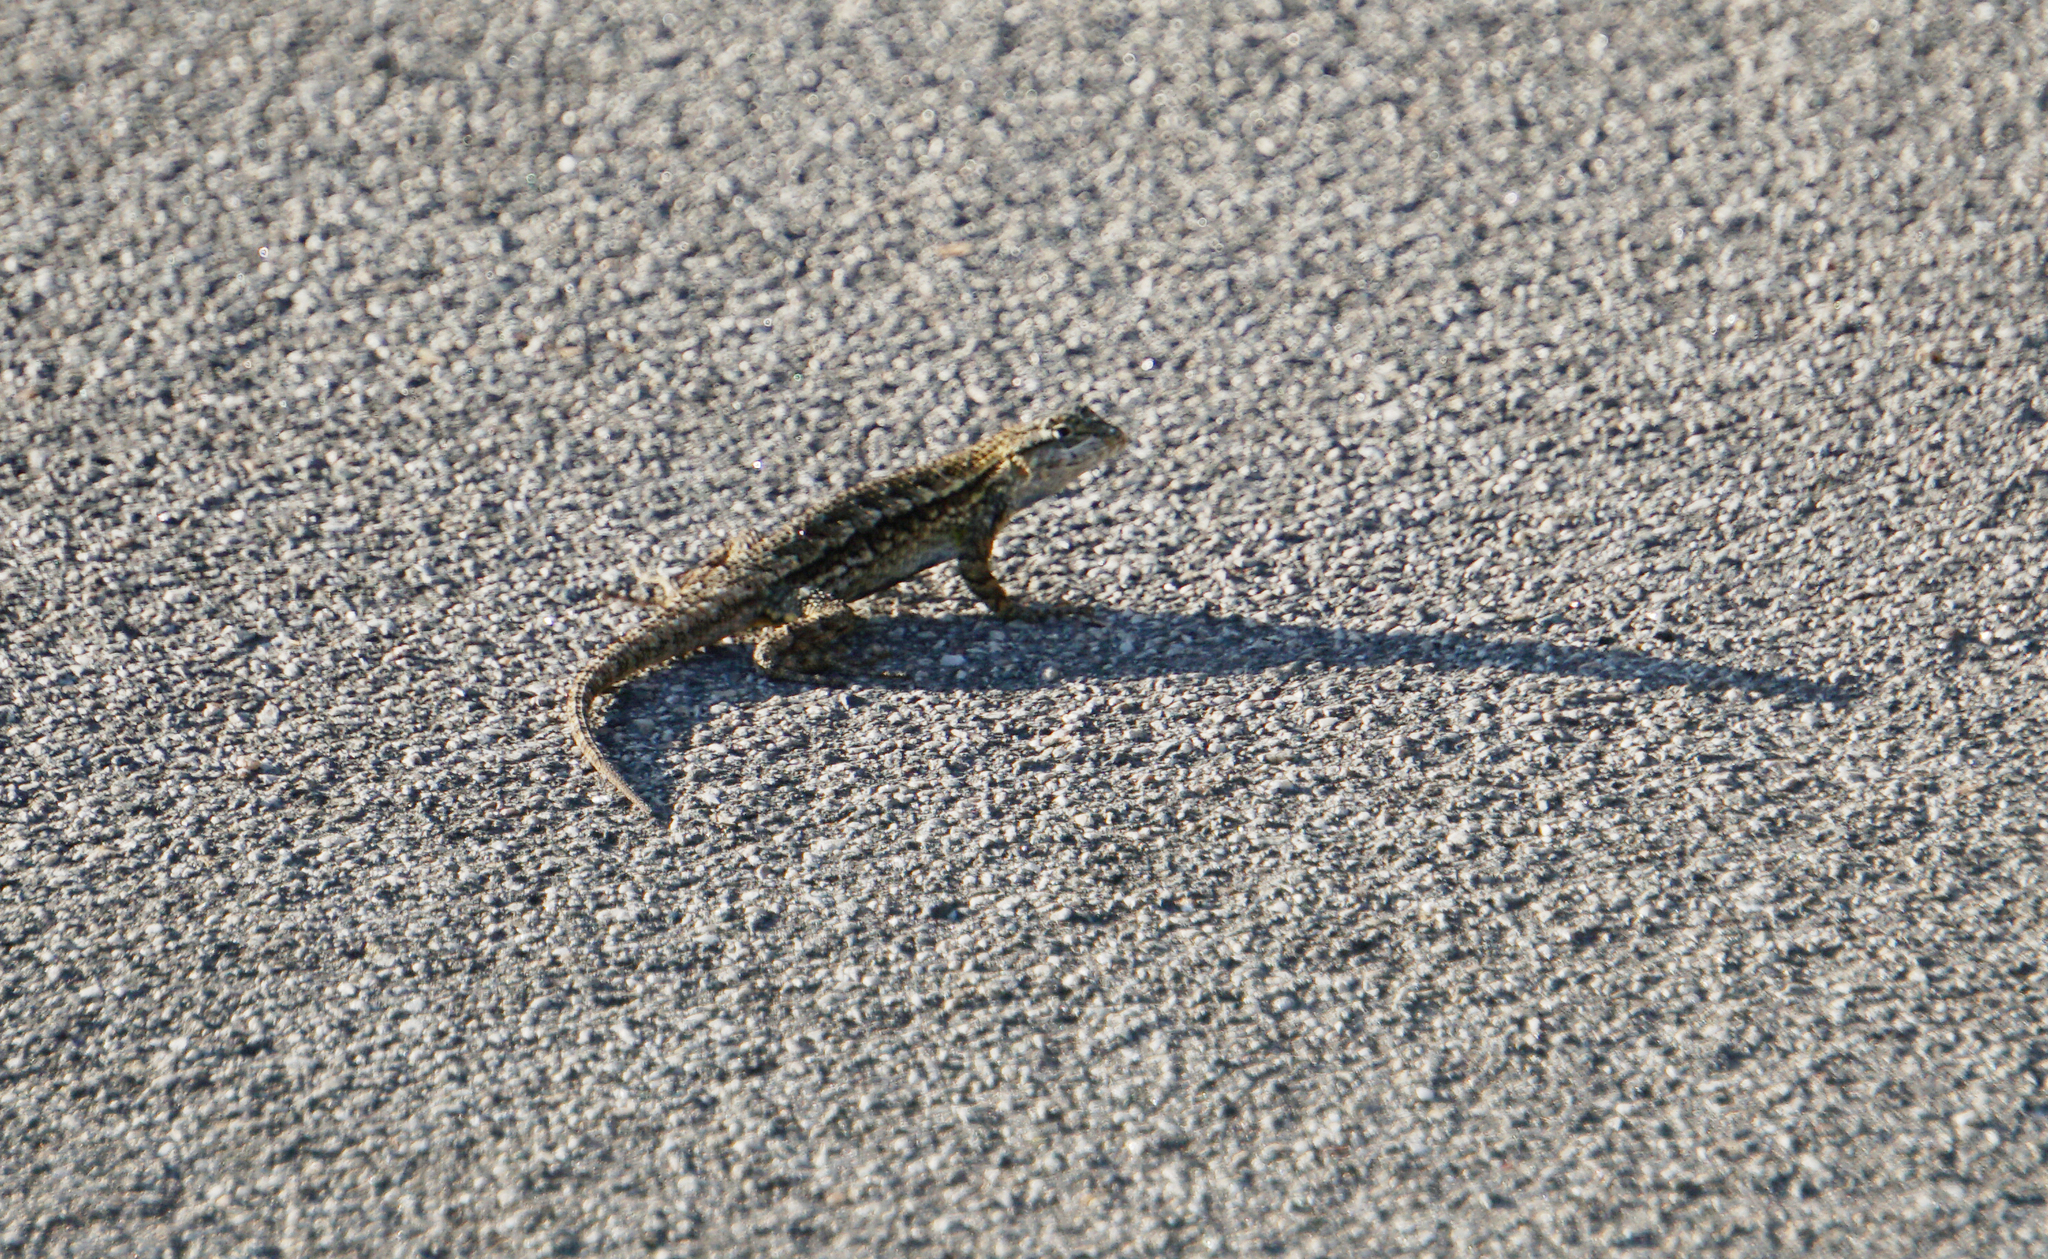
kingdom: Animalia
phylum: Chordata
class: Squamata
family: Phrynosomatidae
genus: Sceloporus
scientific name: Sceloporus occidentalis
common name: Western fence lizard
